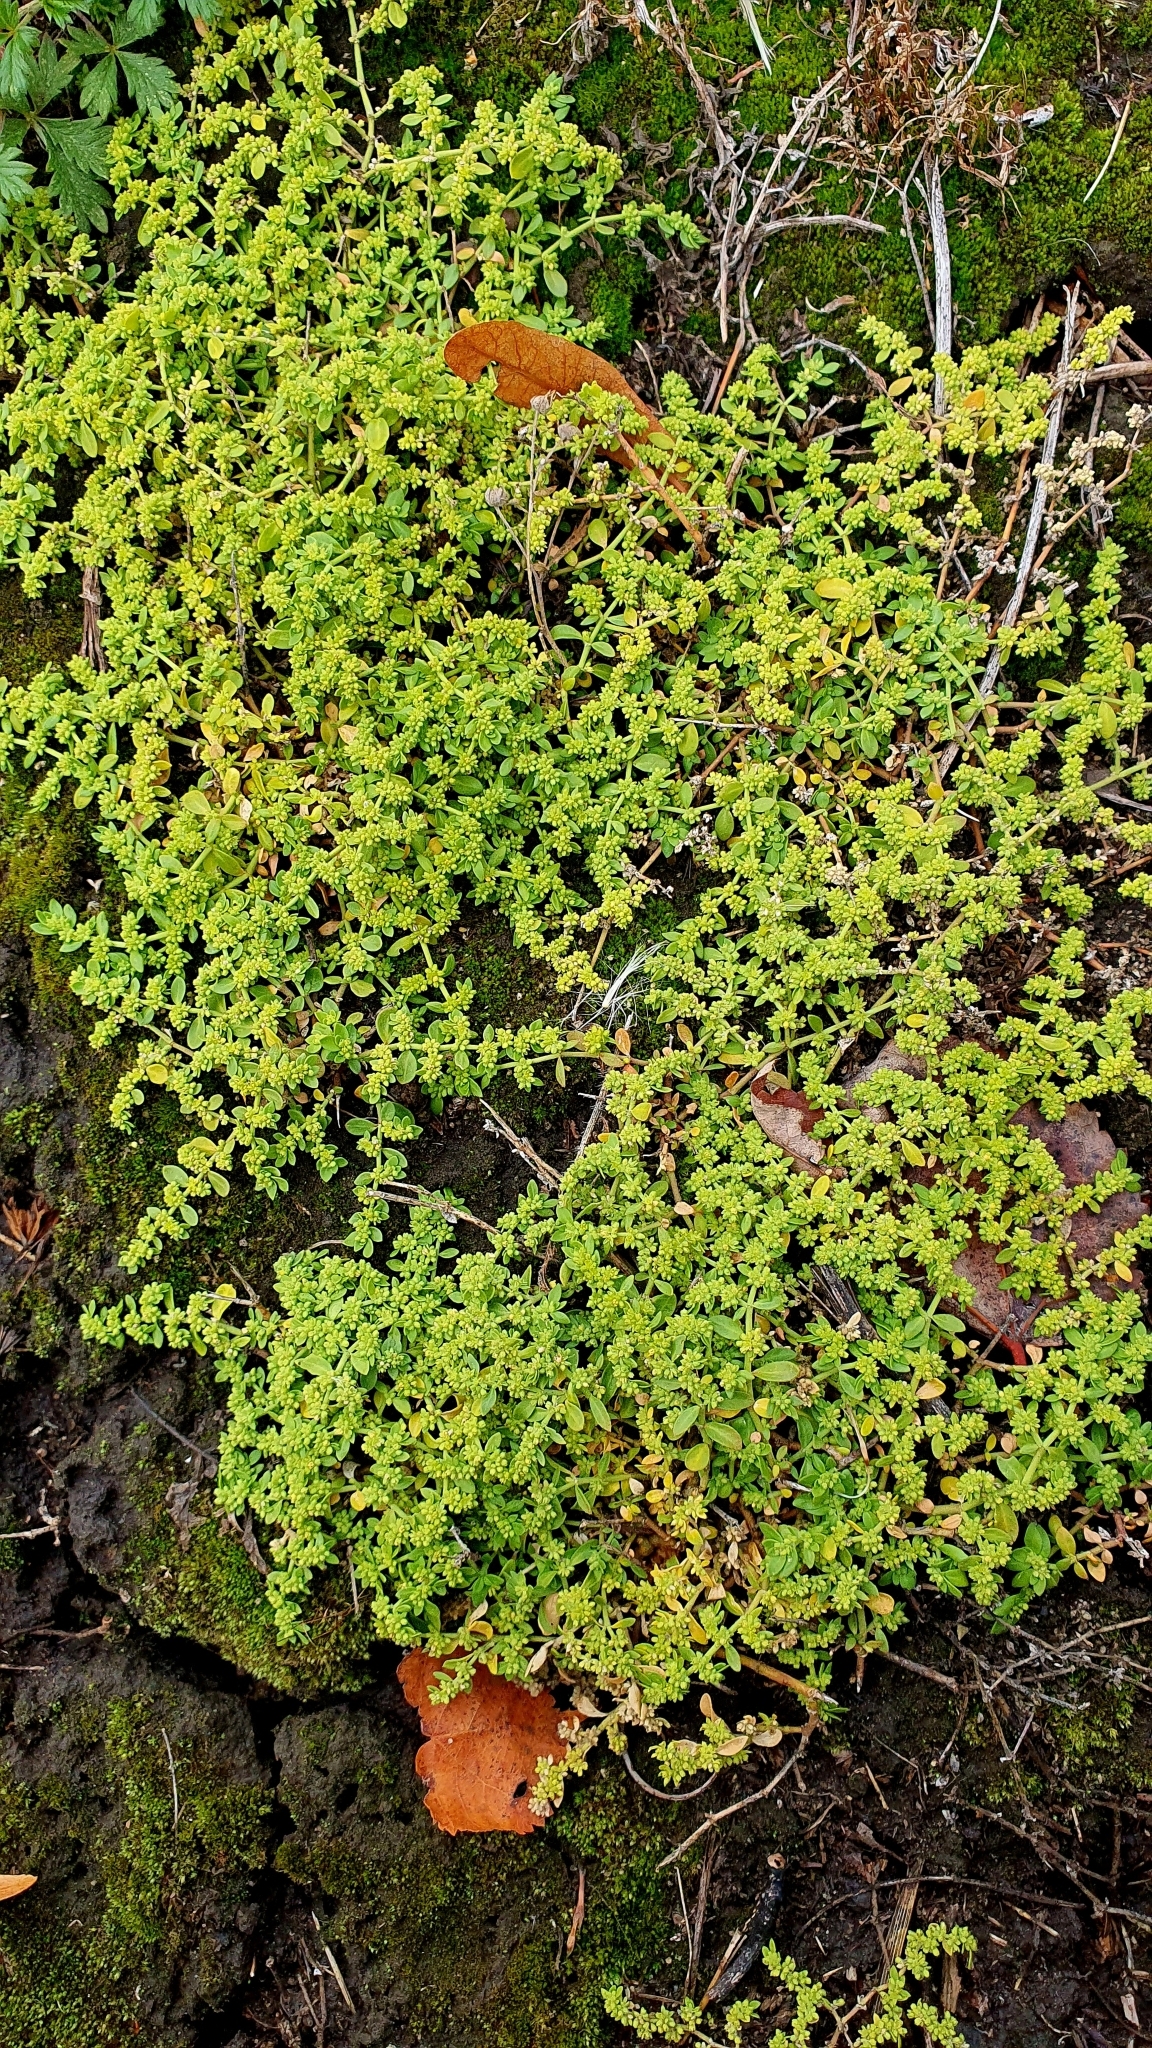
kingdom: Plantae
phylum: Tracheophyta
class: Magnoliopsida
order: Caryophyllales
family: Caryophyllaceae
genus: Herniaria
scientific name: Herniaria polygama
